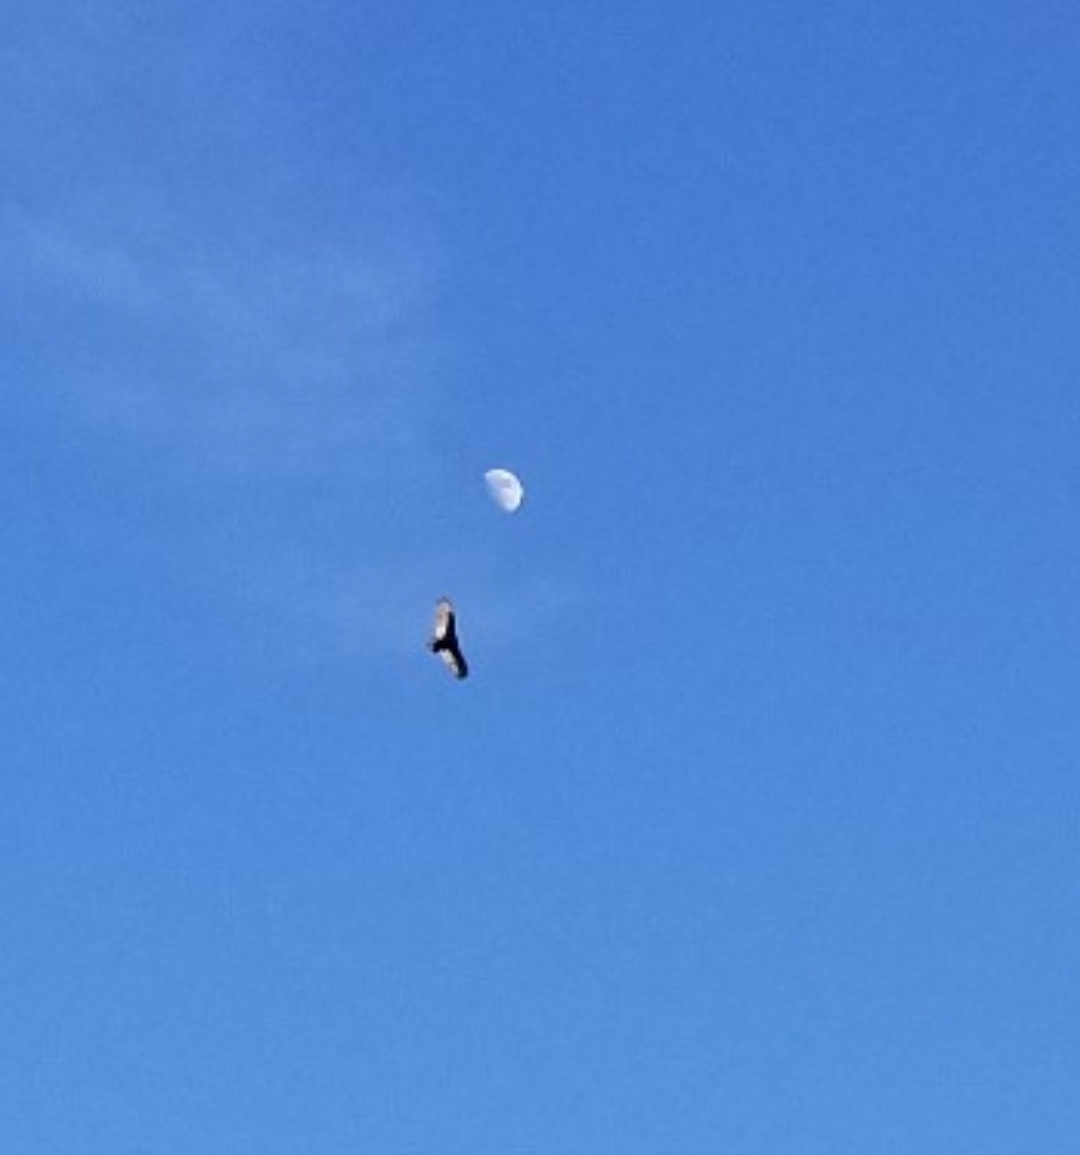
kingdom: Animalia
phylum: Chordata
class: Aves
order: Accipitriformes
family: Cathartidae
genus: Cathartes
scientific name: Cathartes aura
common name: Turkey vulture
